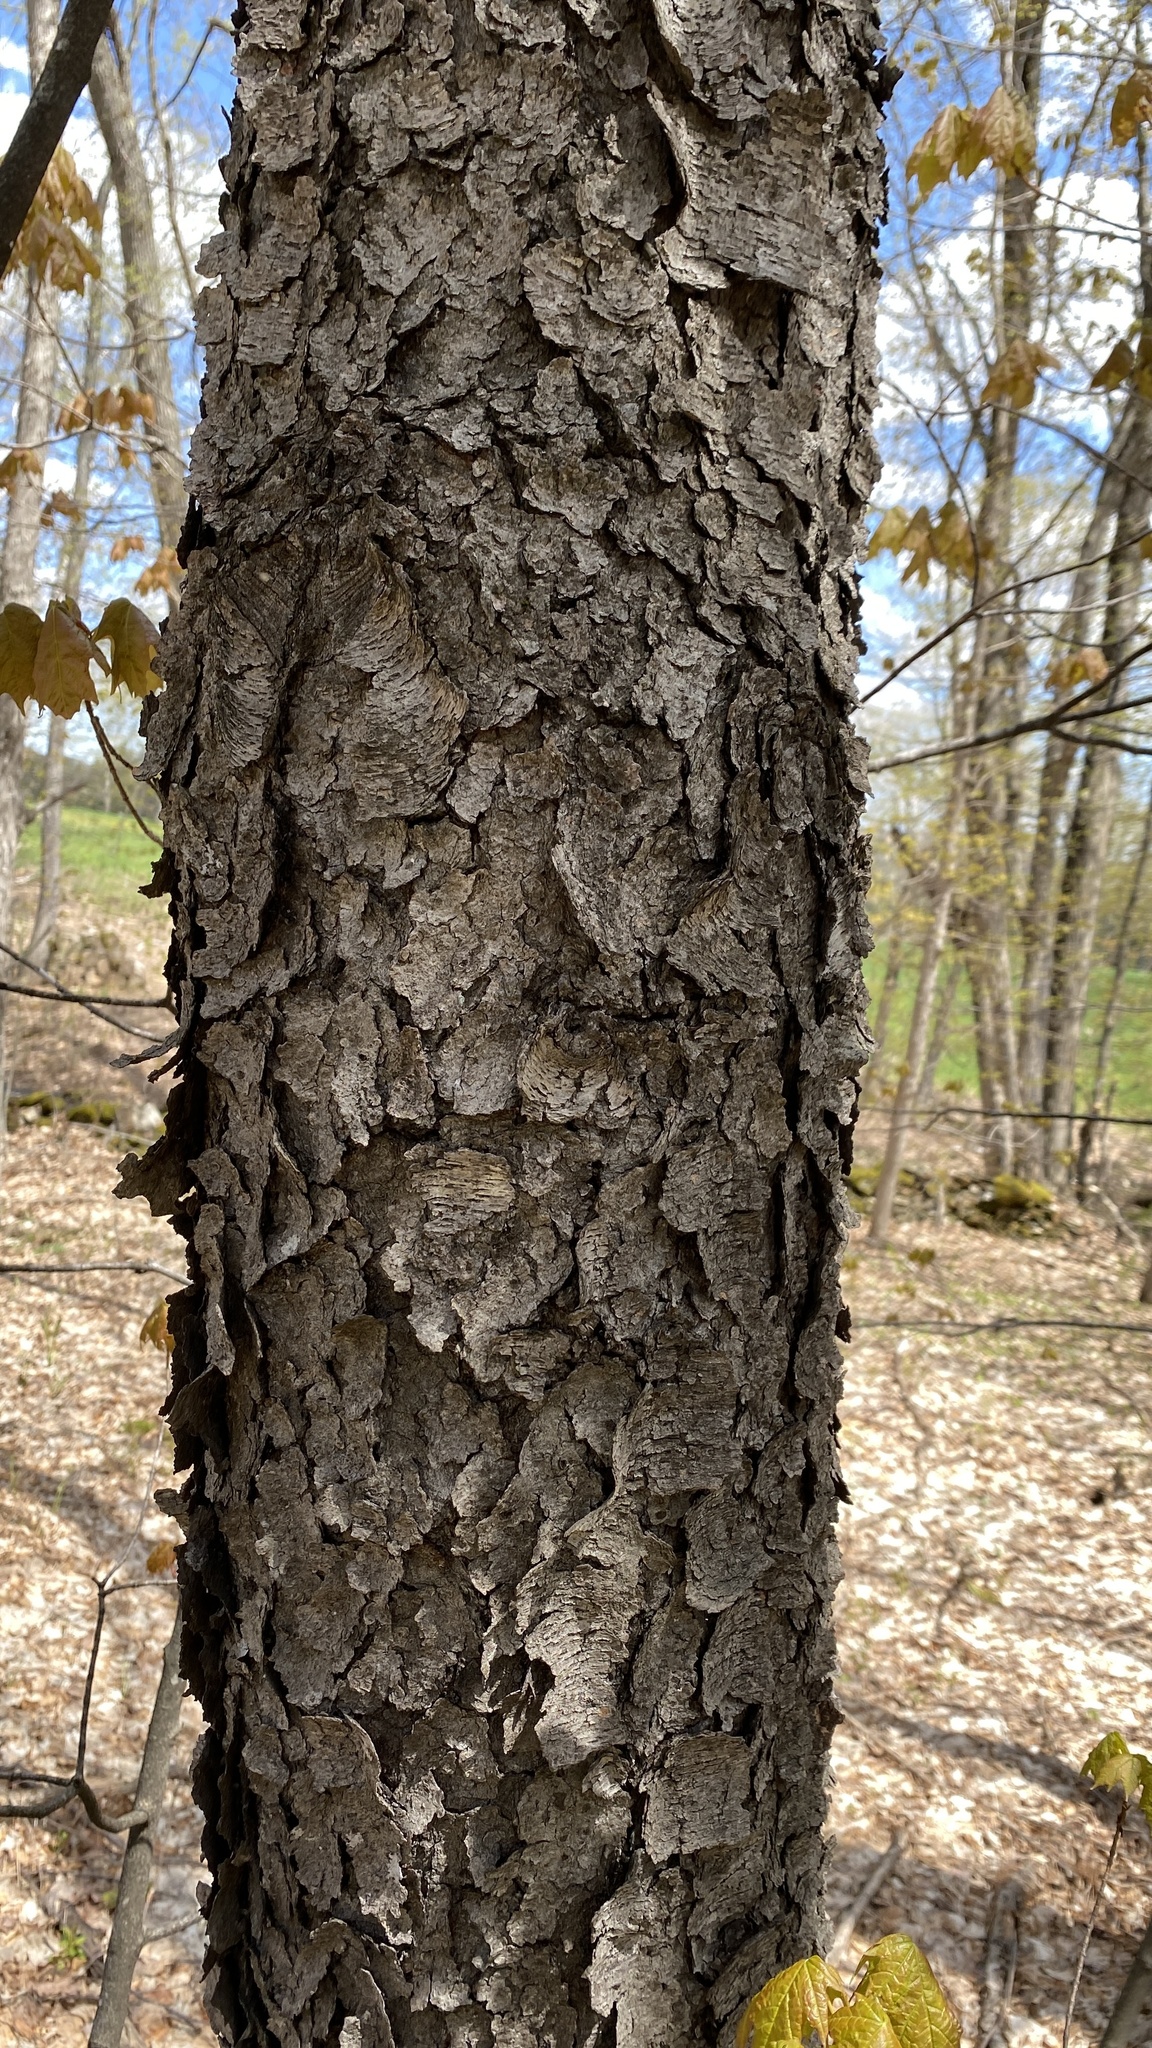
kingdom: Plantae
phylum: Tracheophyta
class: Magnoliopsida
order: Rosales
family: Rosaceae
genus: Prunus
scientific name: Prunus serotina
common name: Black cherry
